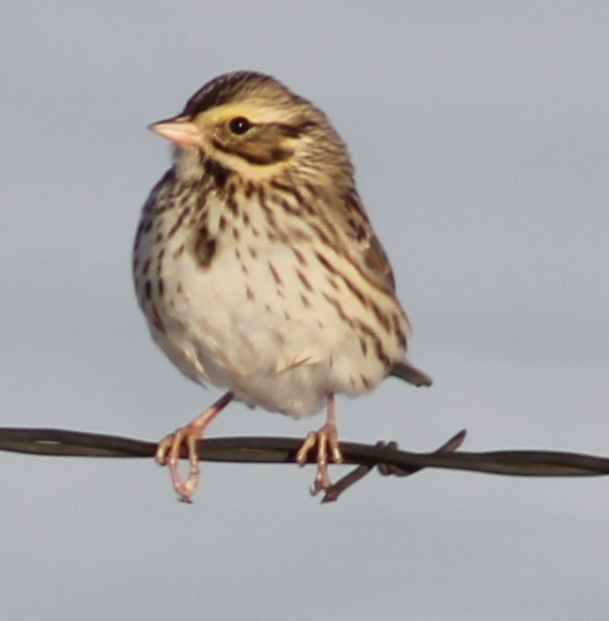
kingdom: Animalia
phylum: Chordata
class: Aves
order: Passeriformes
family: Passerellidae
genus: Passerculus
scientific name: Passerculus sandwichensis
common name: Savannah sparrow
